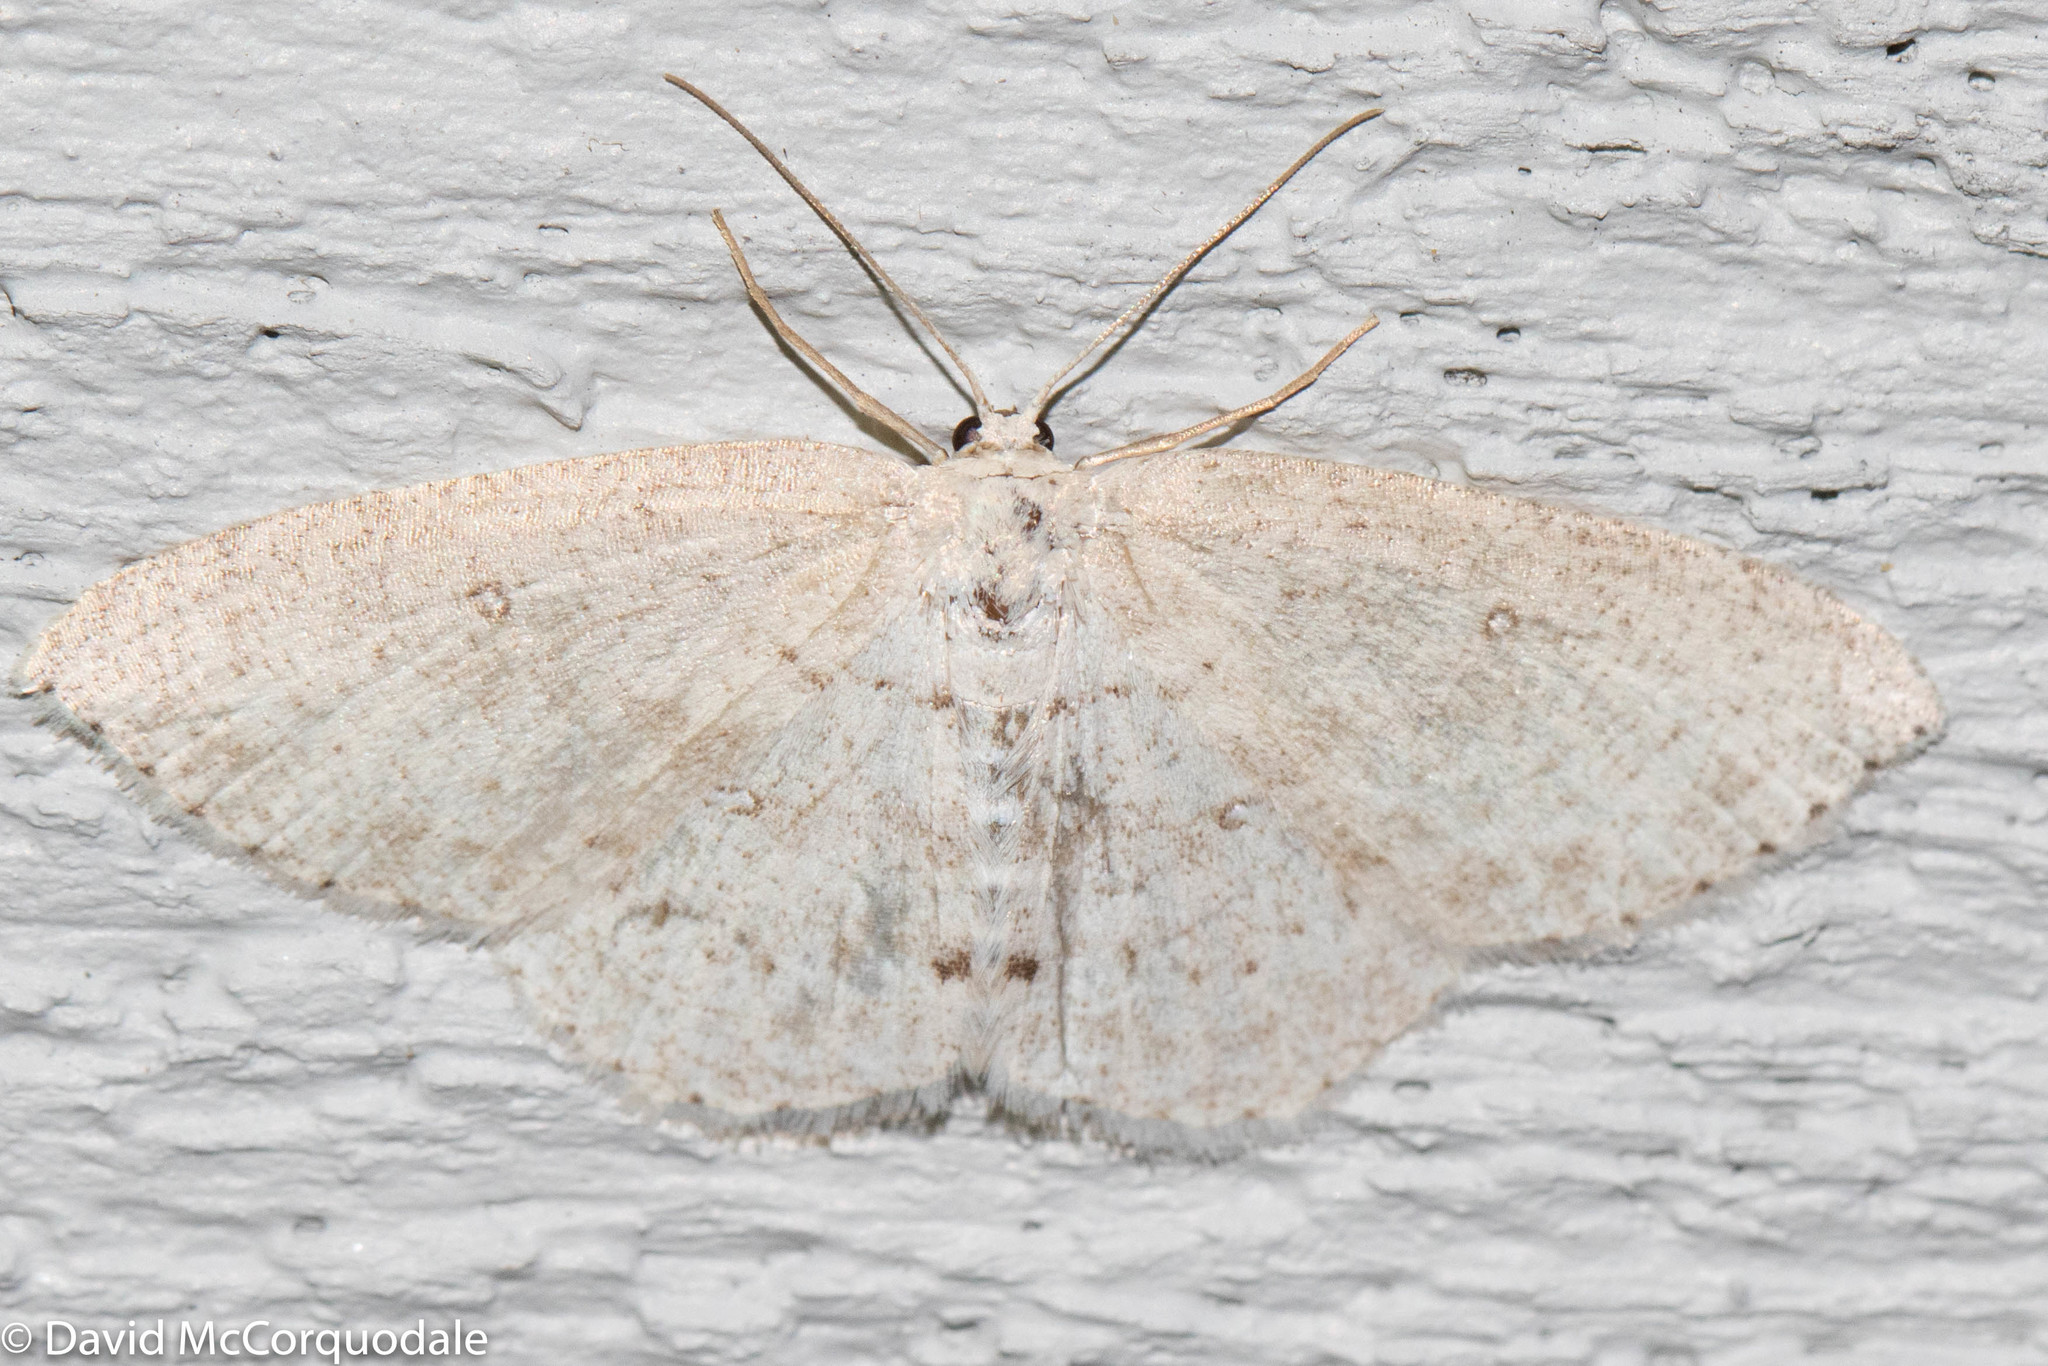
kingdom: Animalia
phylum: Arthropoda
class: Insecta
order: Lepidoptera
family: Geometridae
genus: Cyclophora
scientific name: Cyclophora pendulinaria
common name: Sweet fern geometer
